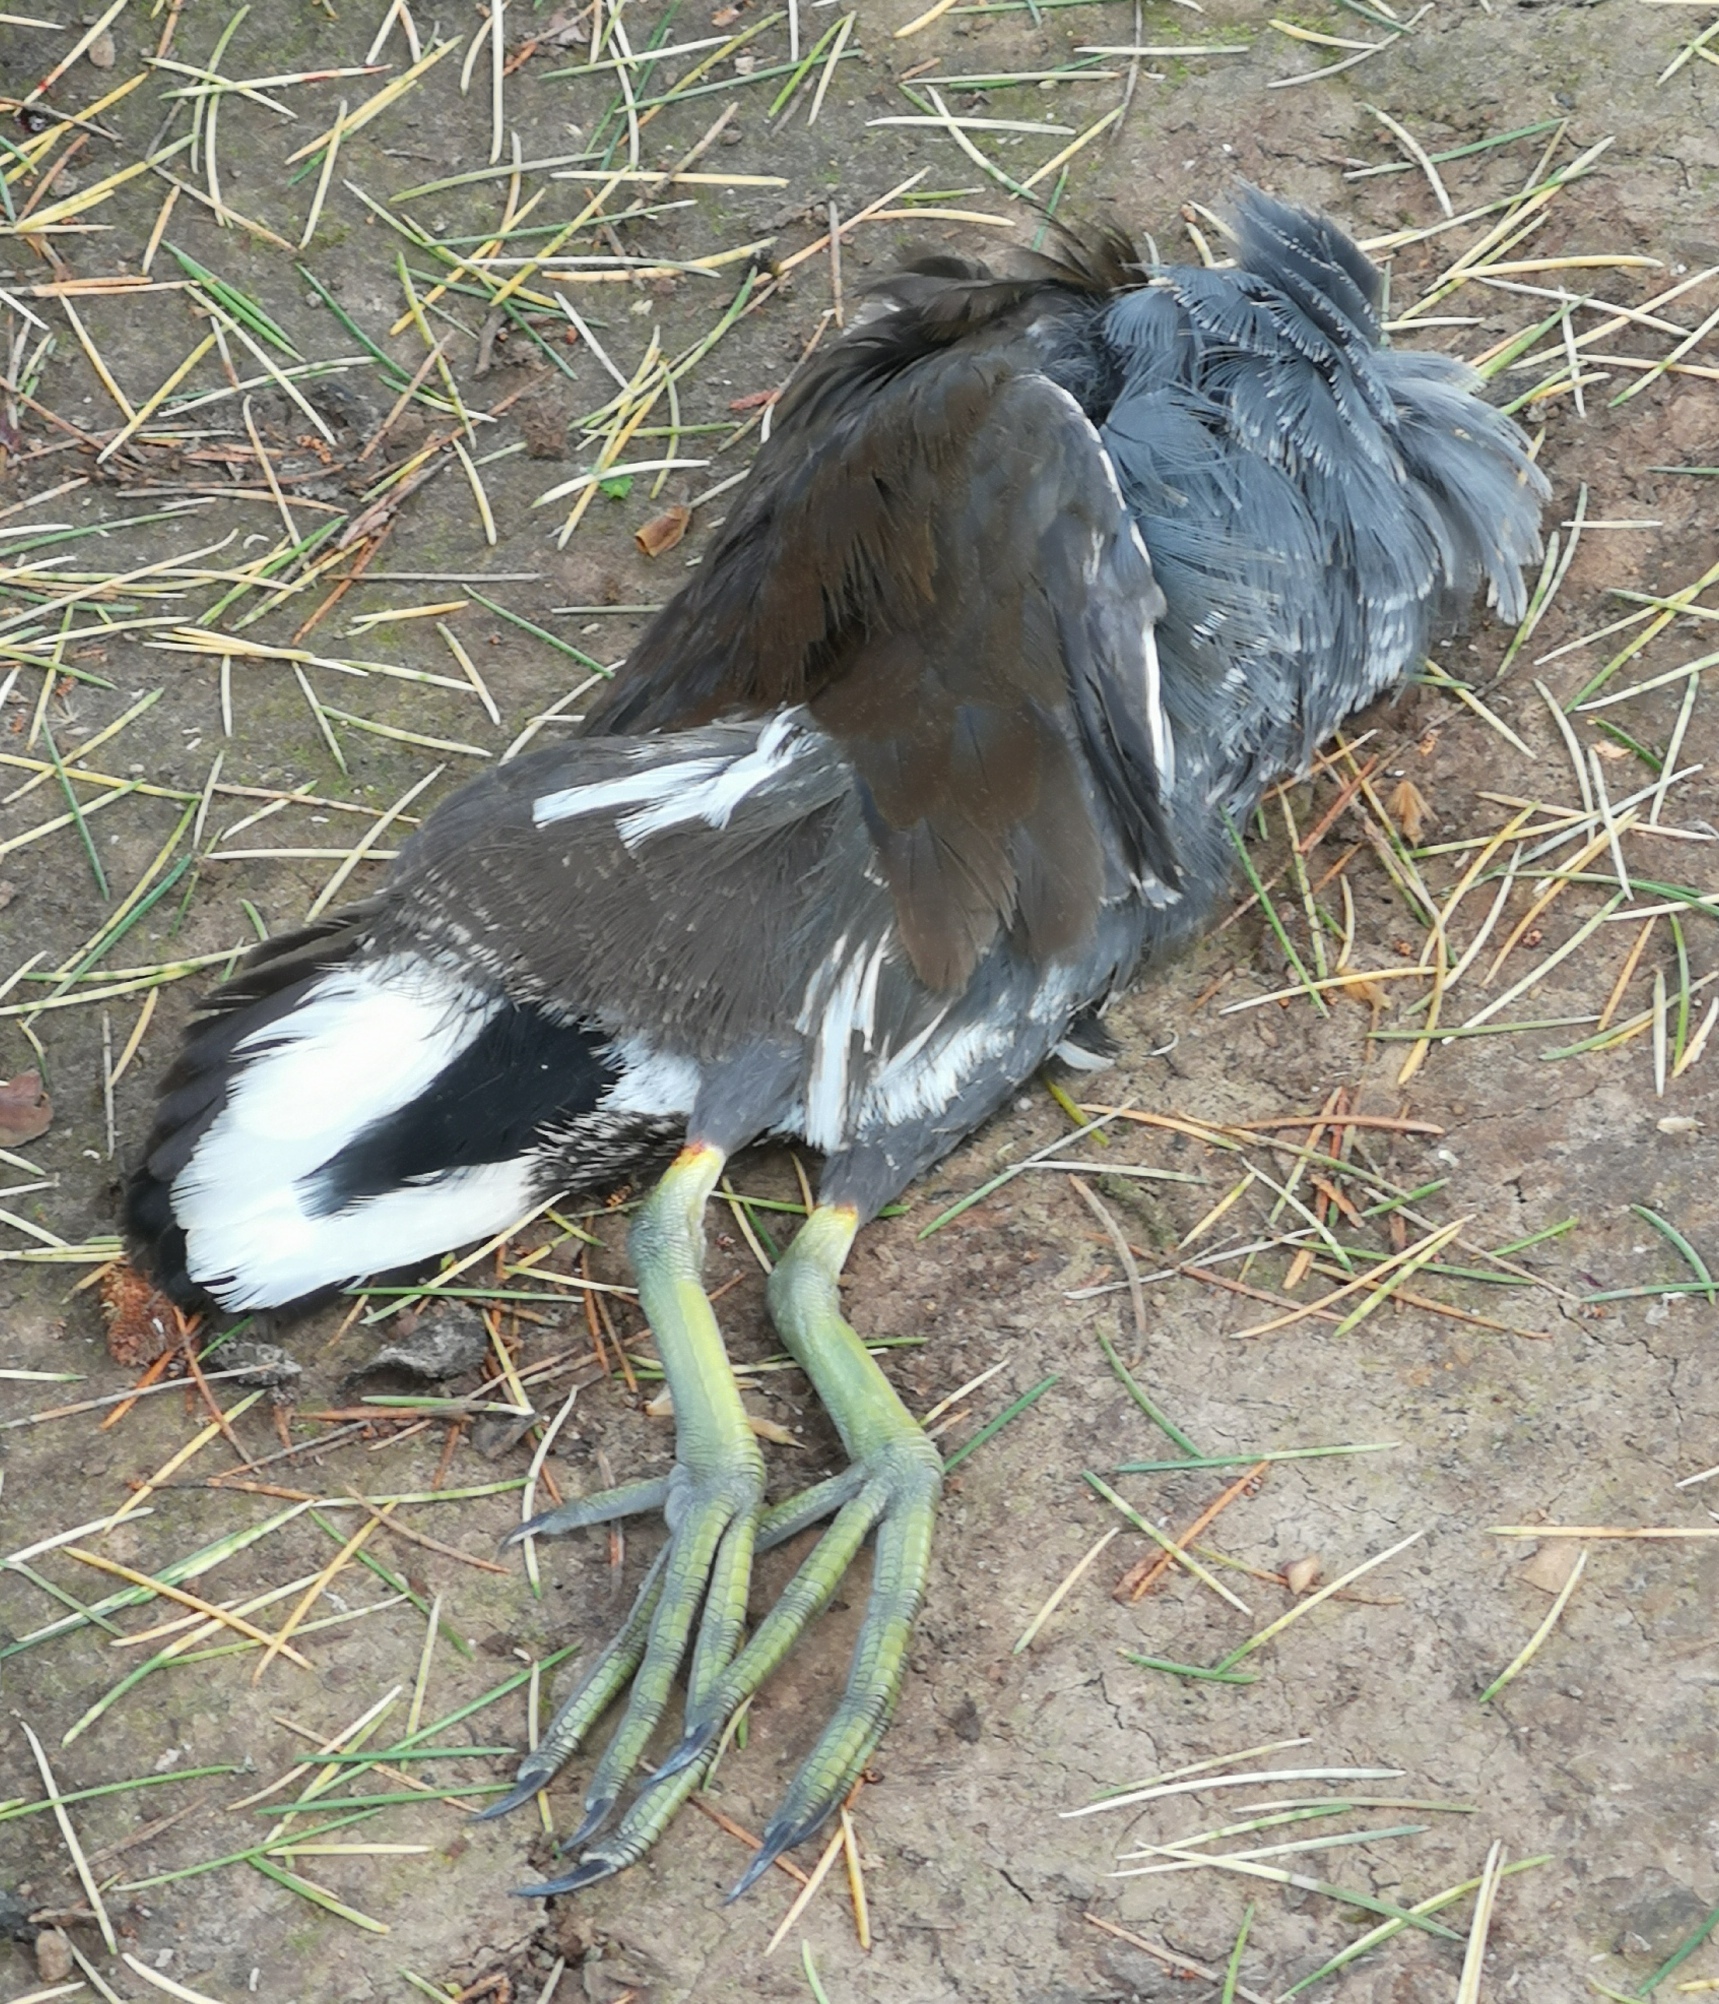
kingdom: Animalia
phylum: Chordata
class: Aves
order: Gruiformes
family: Rallidae
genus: Gallinula
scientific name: Gallinula chloropus
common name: Common moorhen
